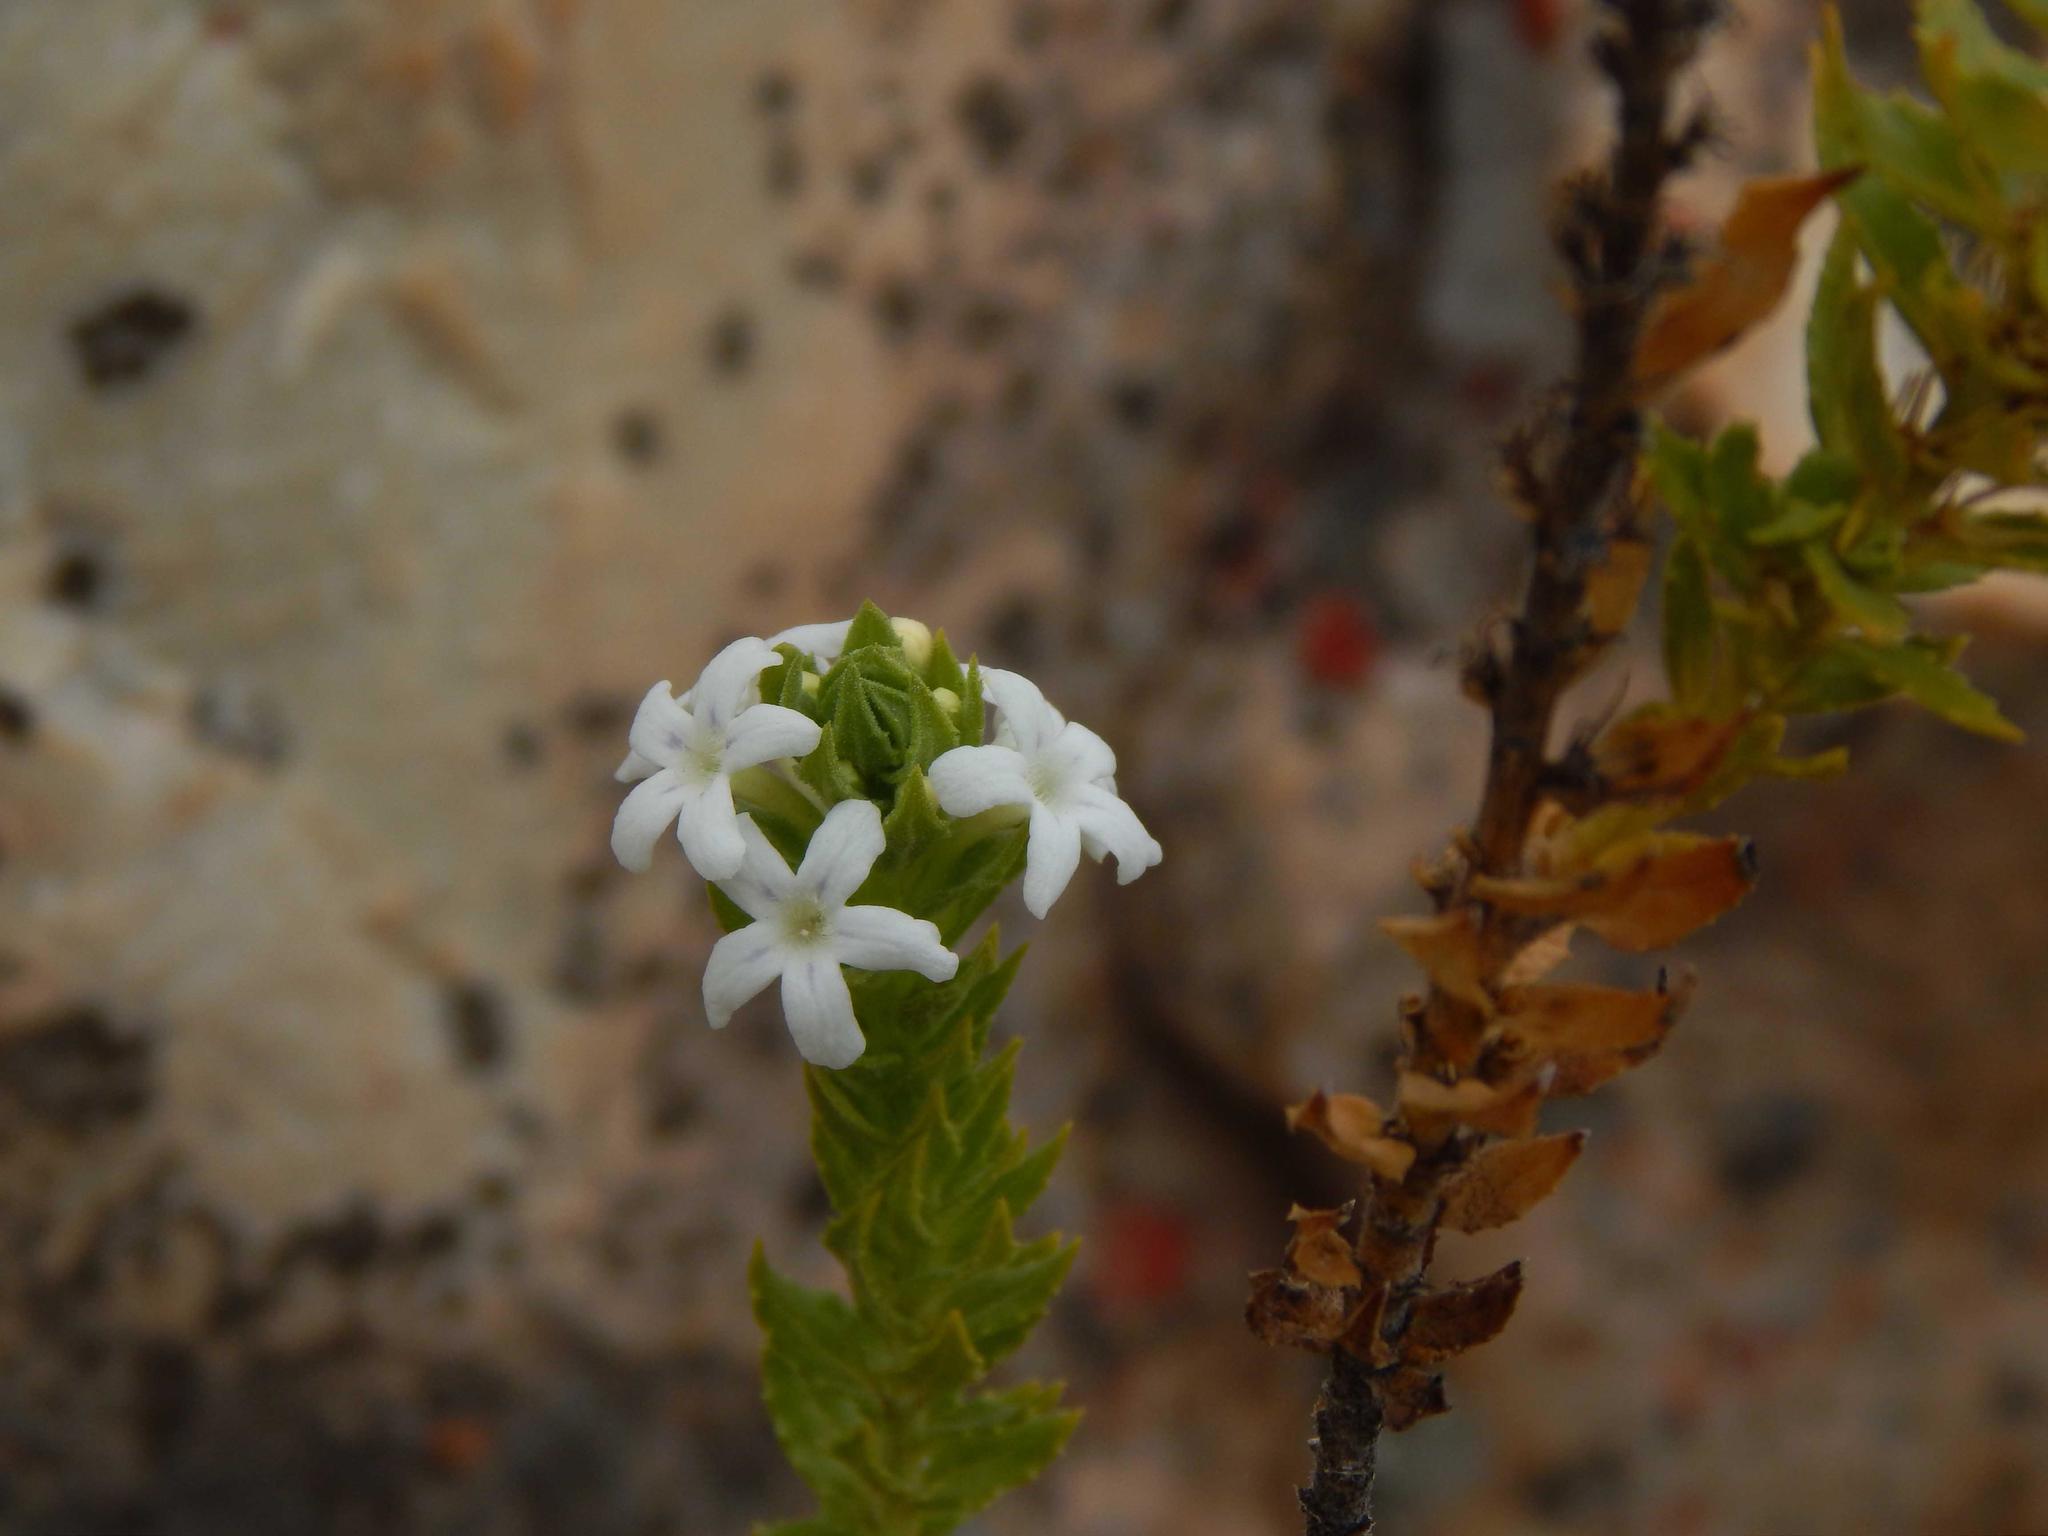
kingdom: Plantae
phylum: Tracheophyta
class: Magnoliopsida
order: Lamiales
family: Scrophulariaceae
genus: Oftia
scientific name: Oftia africana
